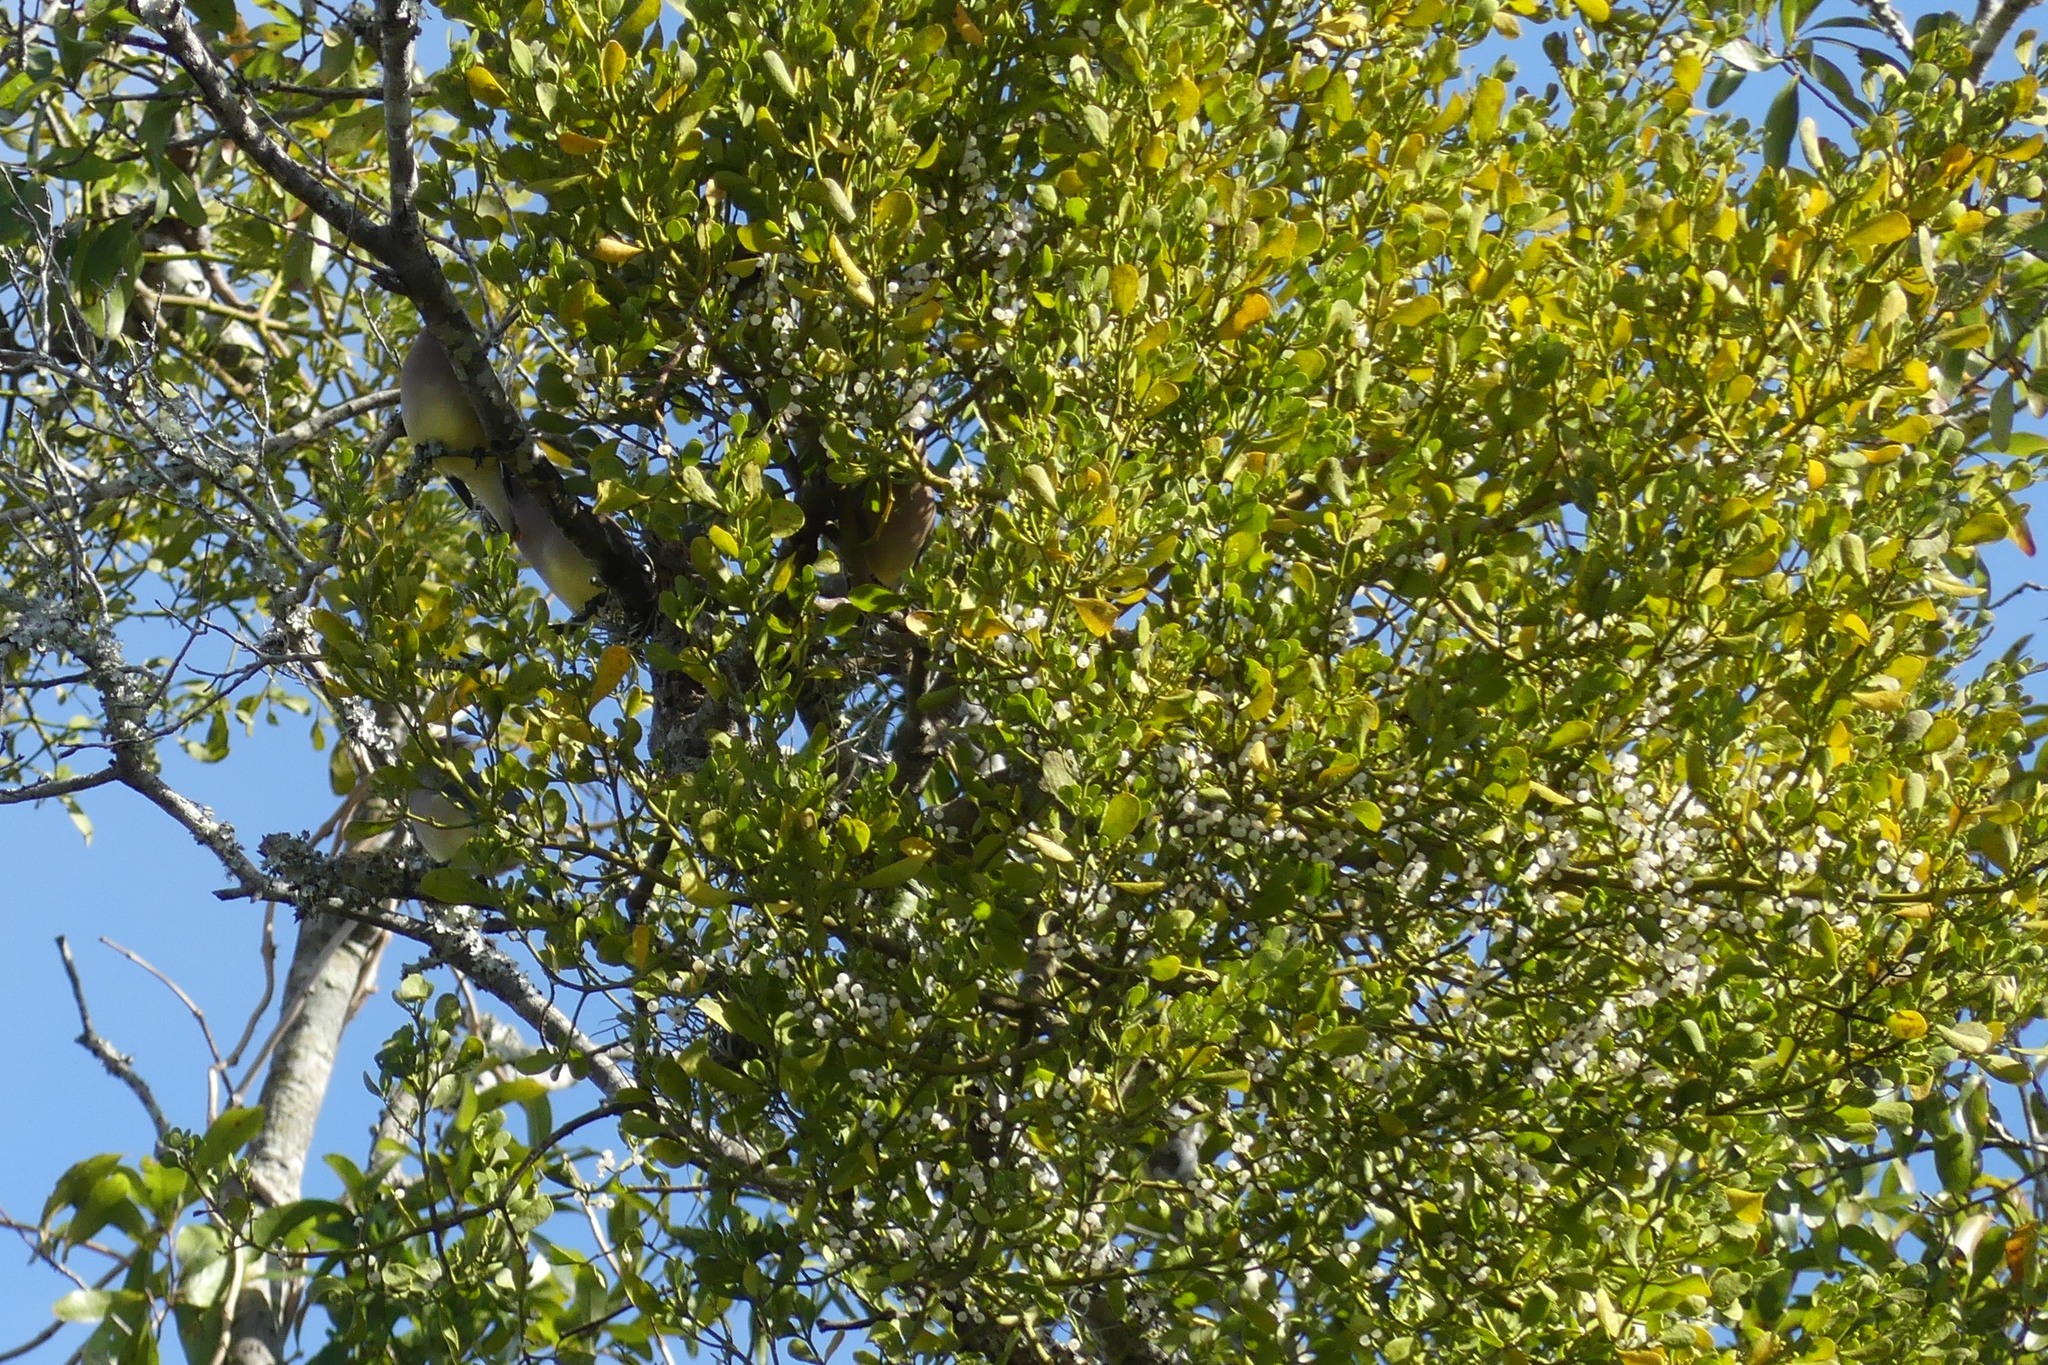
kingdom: Plantae
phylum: Tracheophyta
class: Magnoliopsida
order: Santalales
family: Viscaceae
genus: Phoradendron
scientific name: Phoradendron leucarpum
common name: Pacific mistletoe
